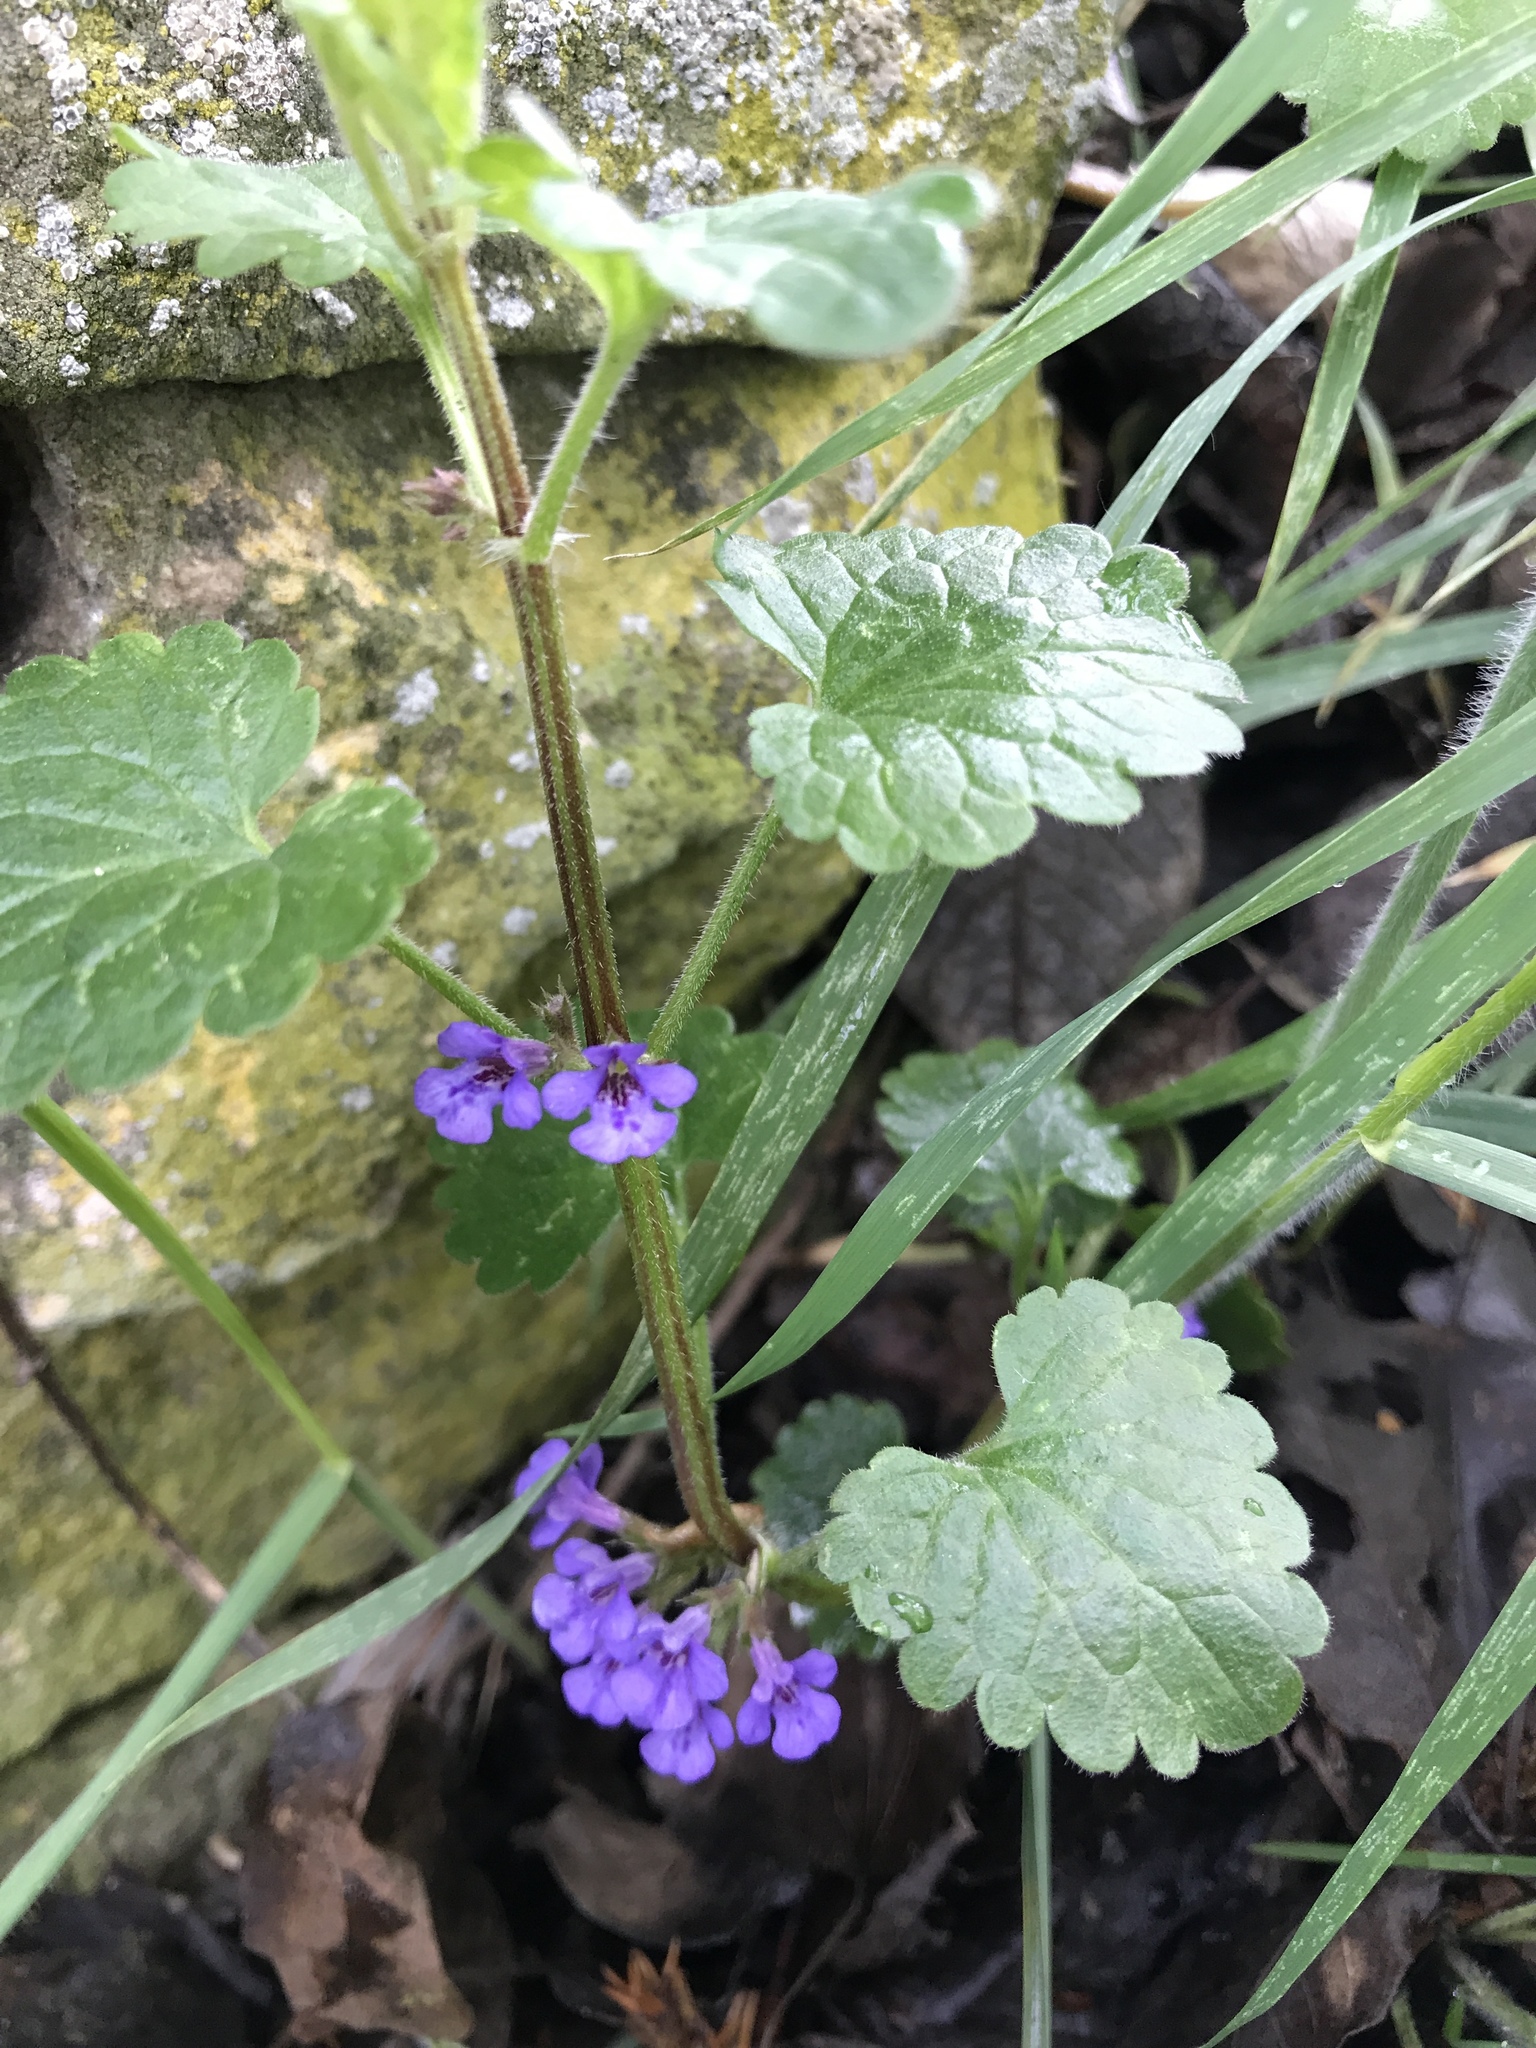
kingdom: Plantae
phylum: Tracheophyta
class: Magnoliopsida
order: Lamiales
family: Lamiaceae
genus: Glechoma
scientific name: Glechoma hederacea
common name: Ground ivy
